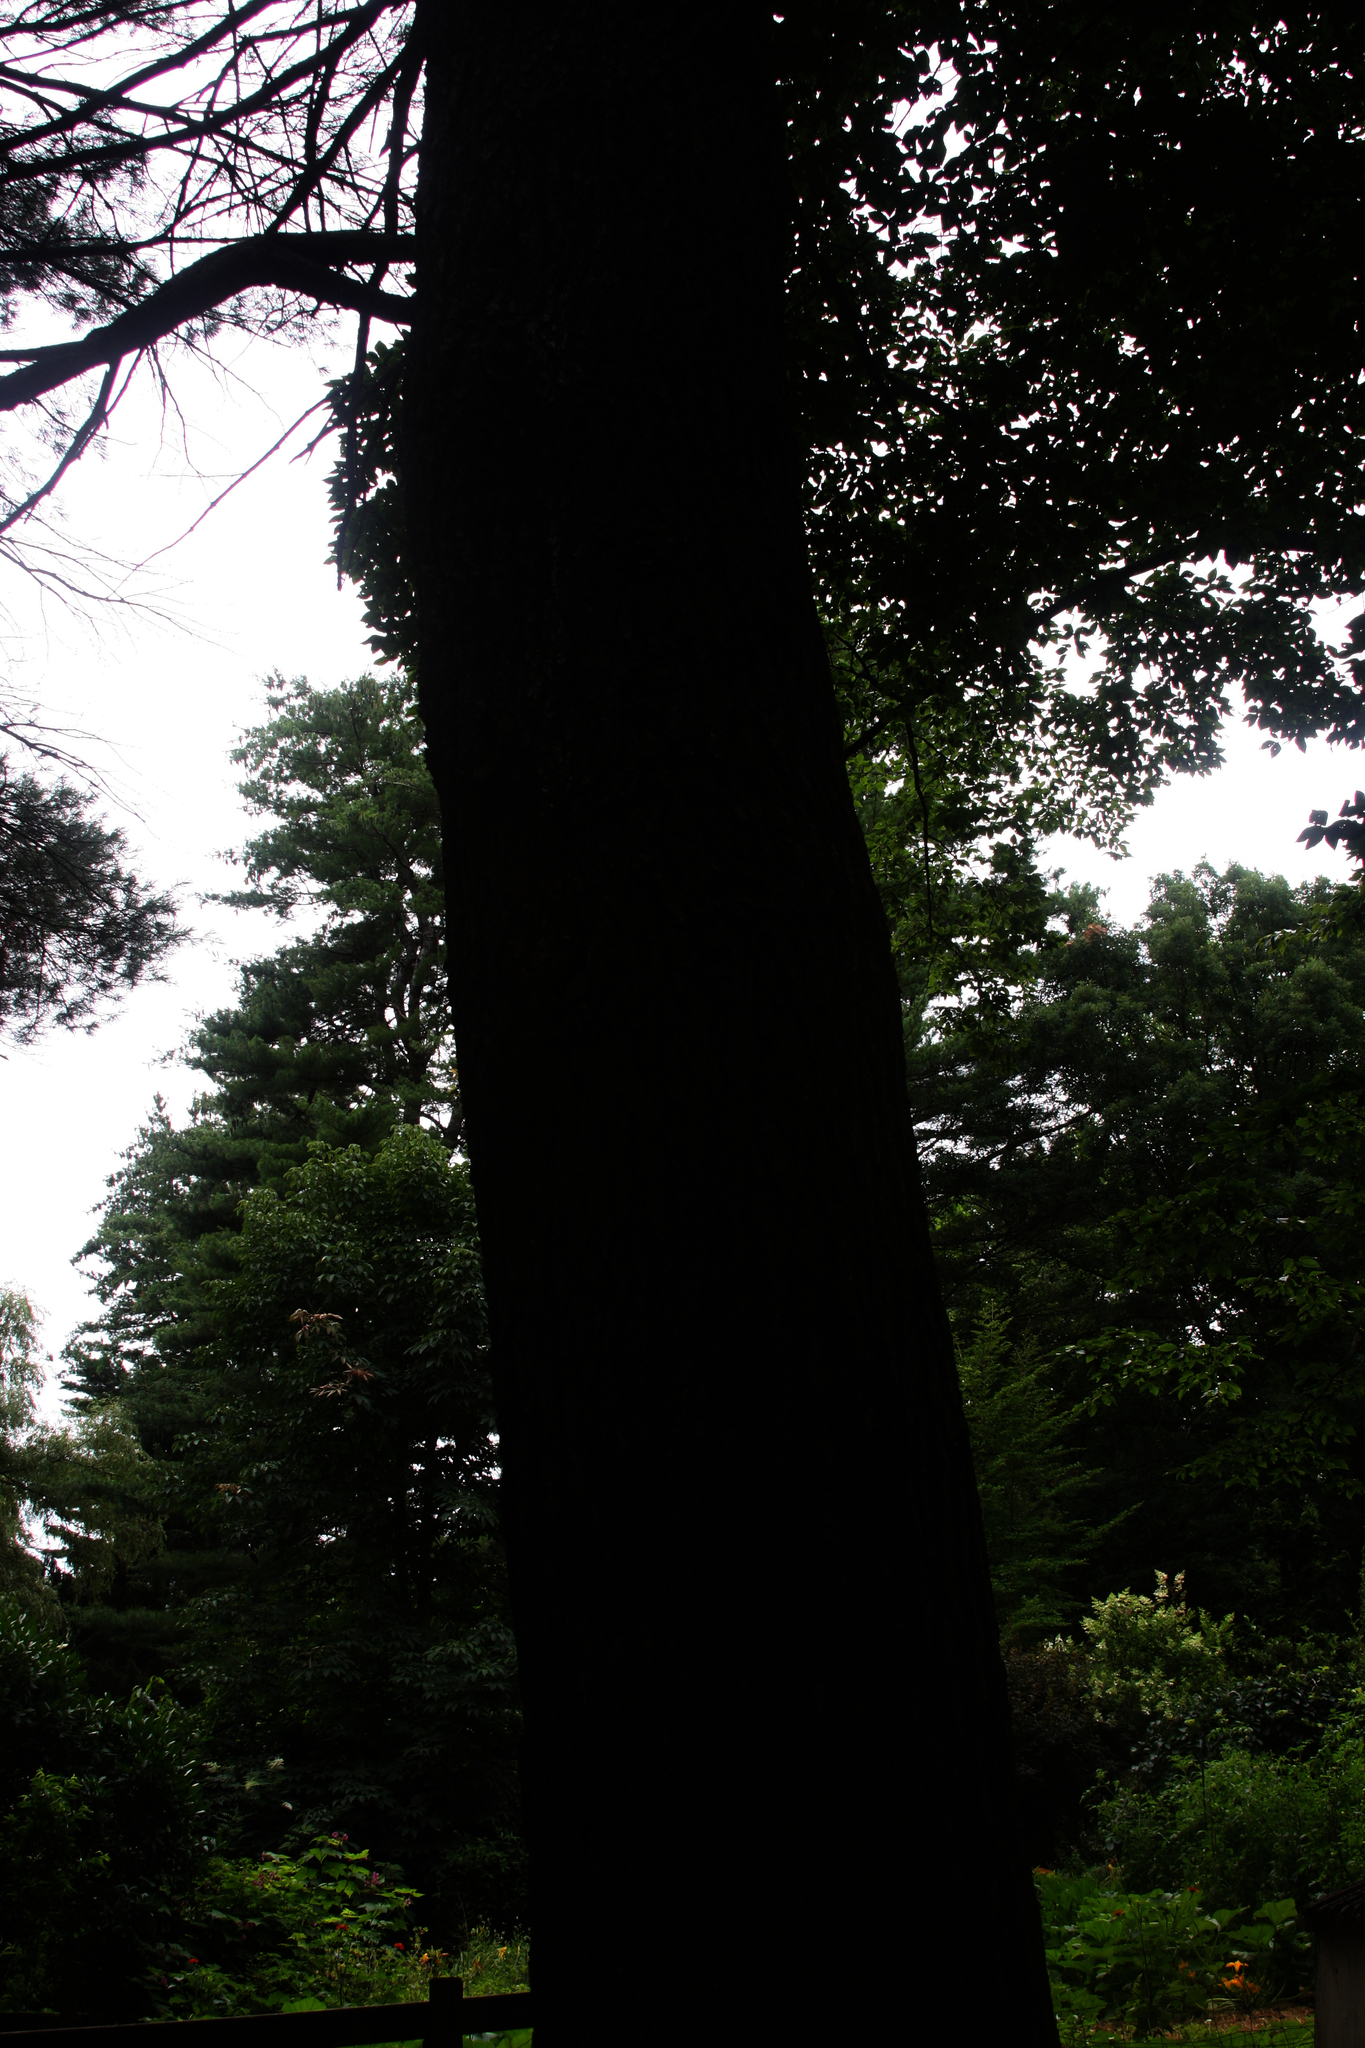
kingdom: Plantae
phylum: Tracheophyta
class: Pinopsida
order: Pinales
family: Pinaceae
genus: Pinus
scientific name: Pinus strobus
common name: Weymouth pine
